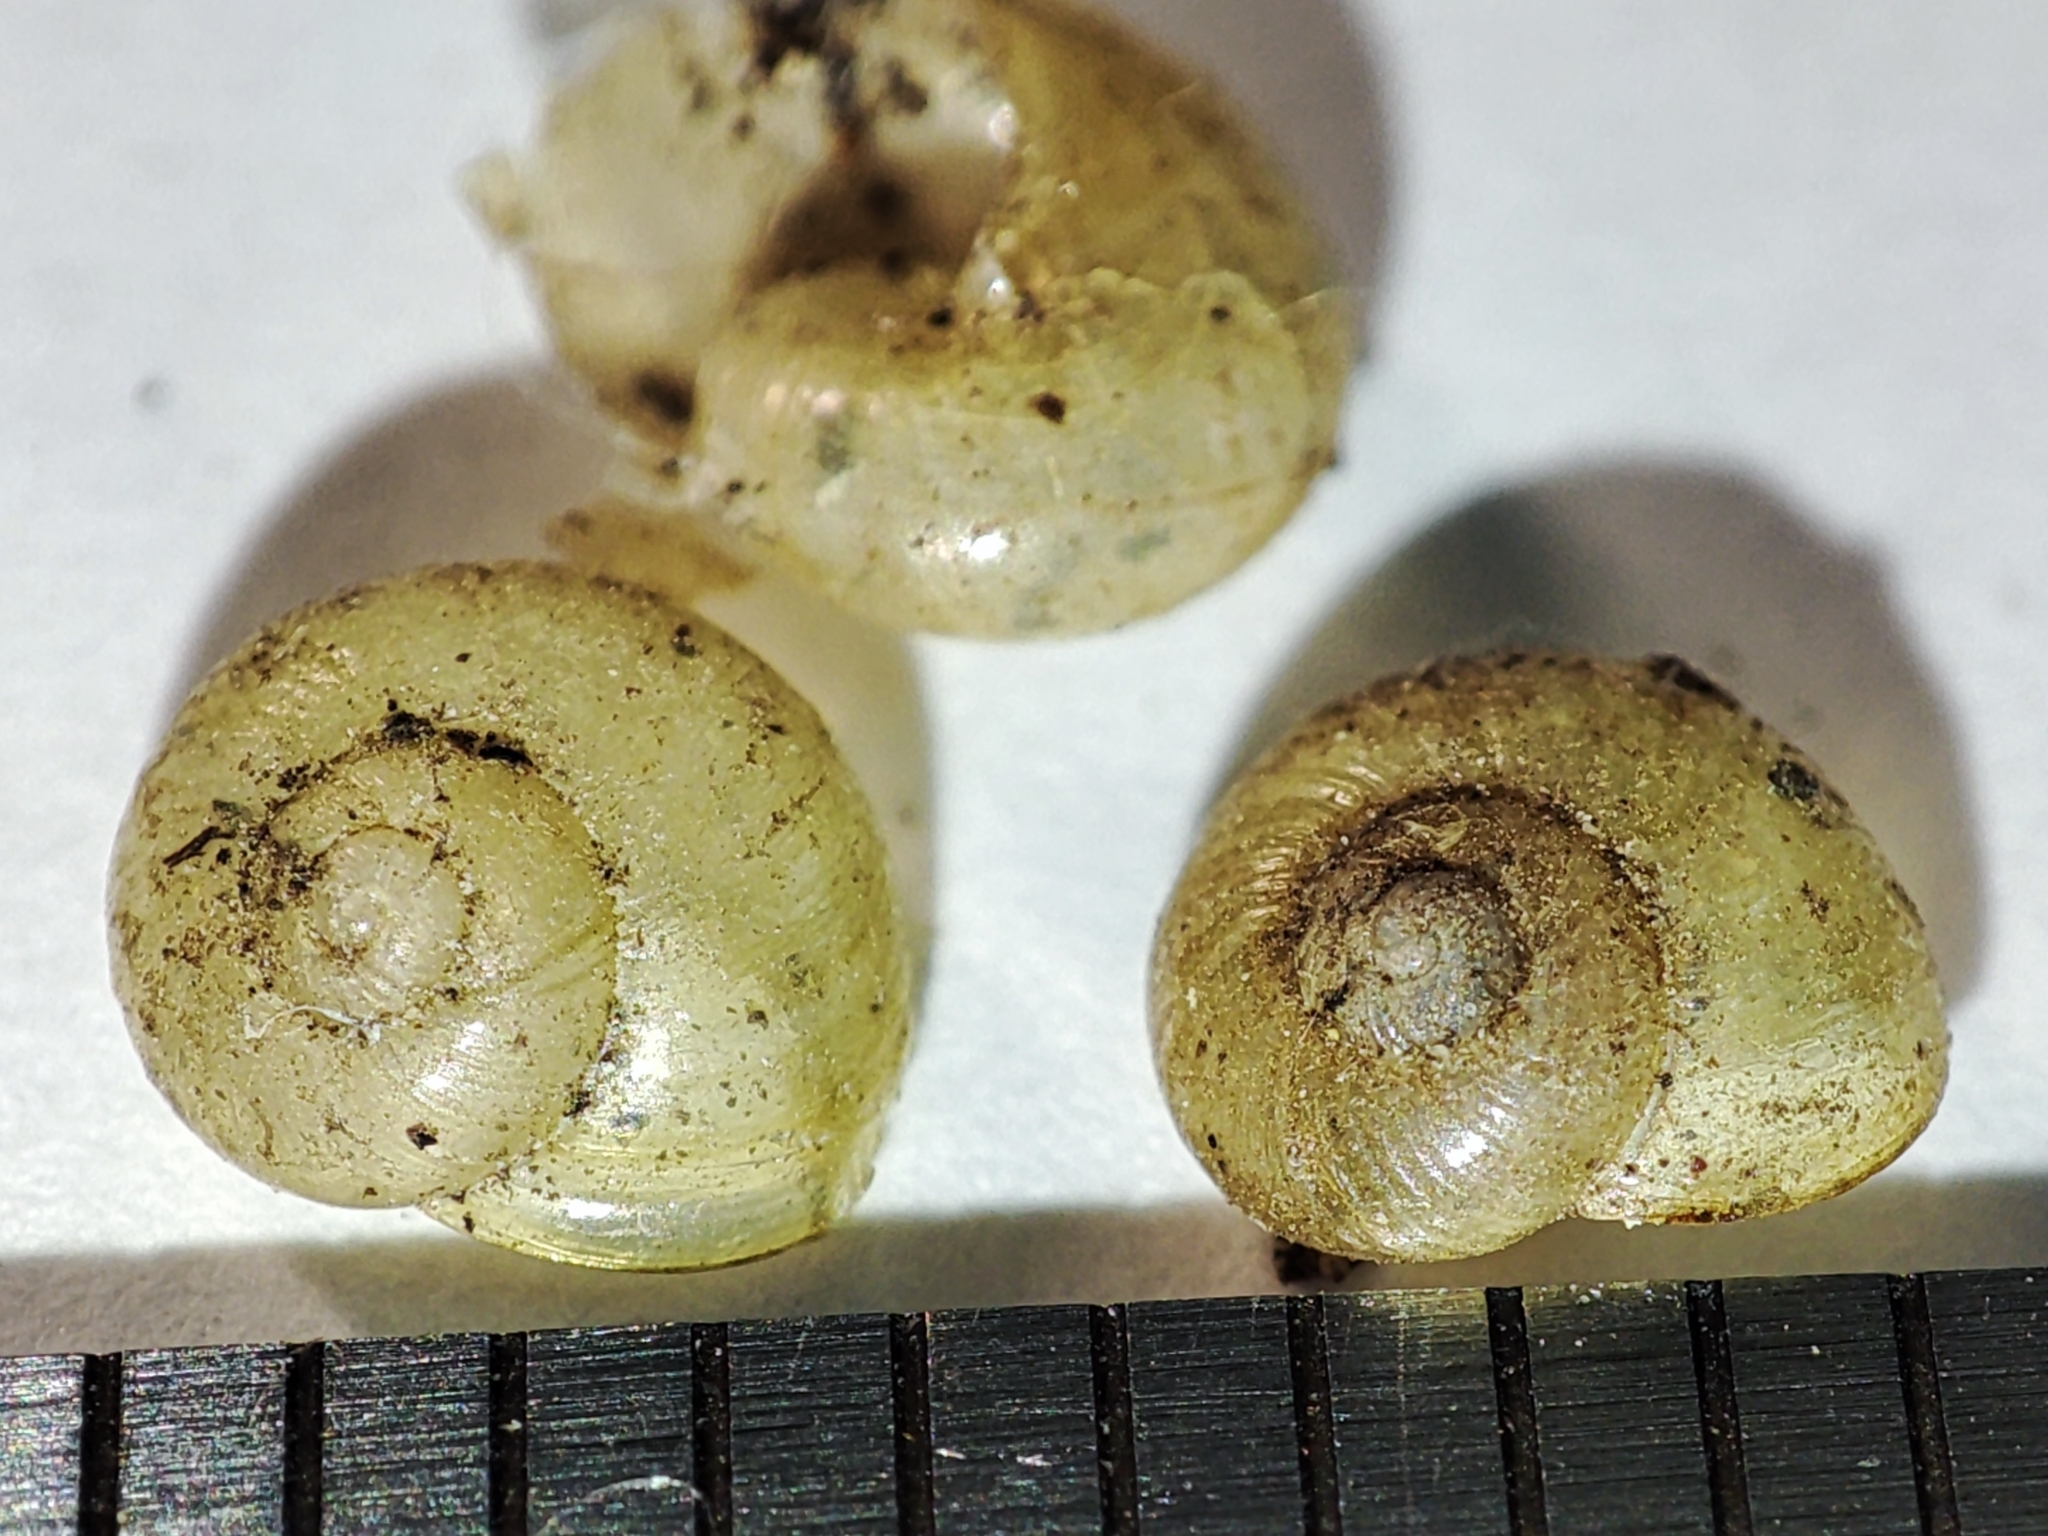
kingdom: Animalia
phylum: Mollusca
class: Gastropoda
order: Stylommatophora
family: Vitrinidae
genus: Oligolimax
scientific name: Oligolimax annularis
